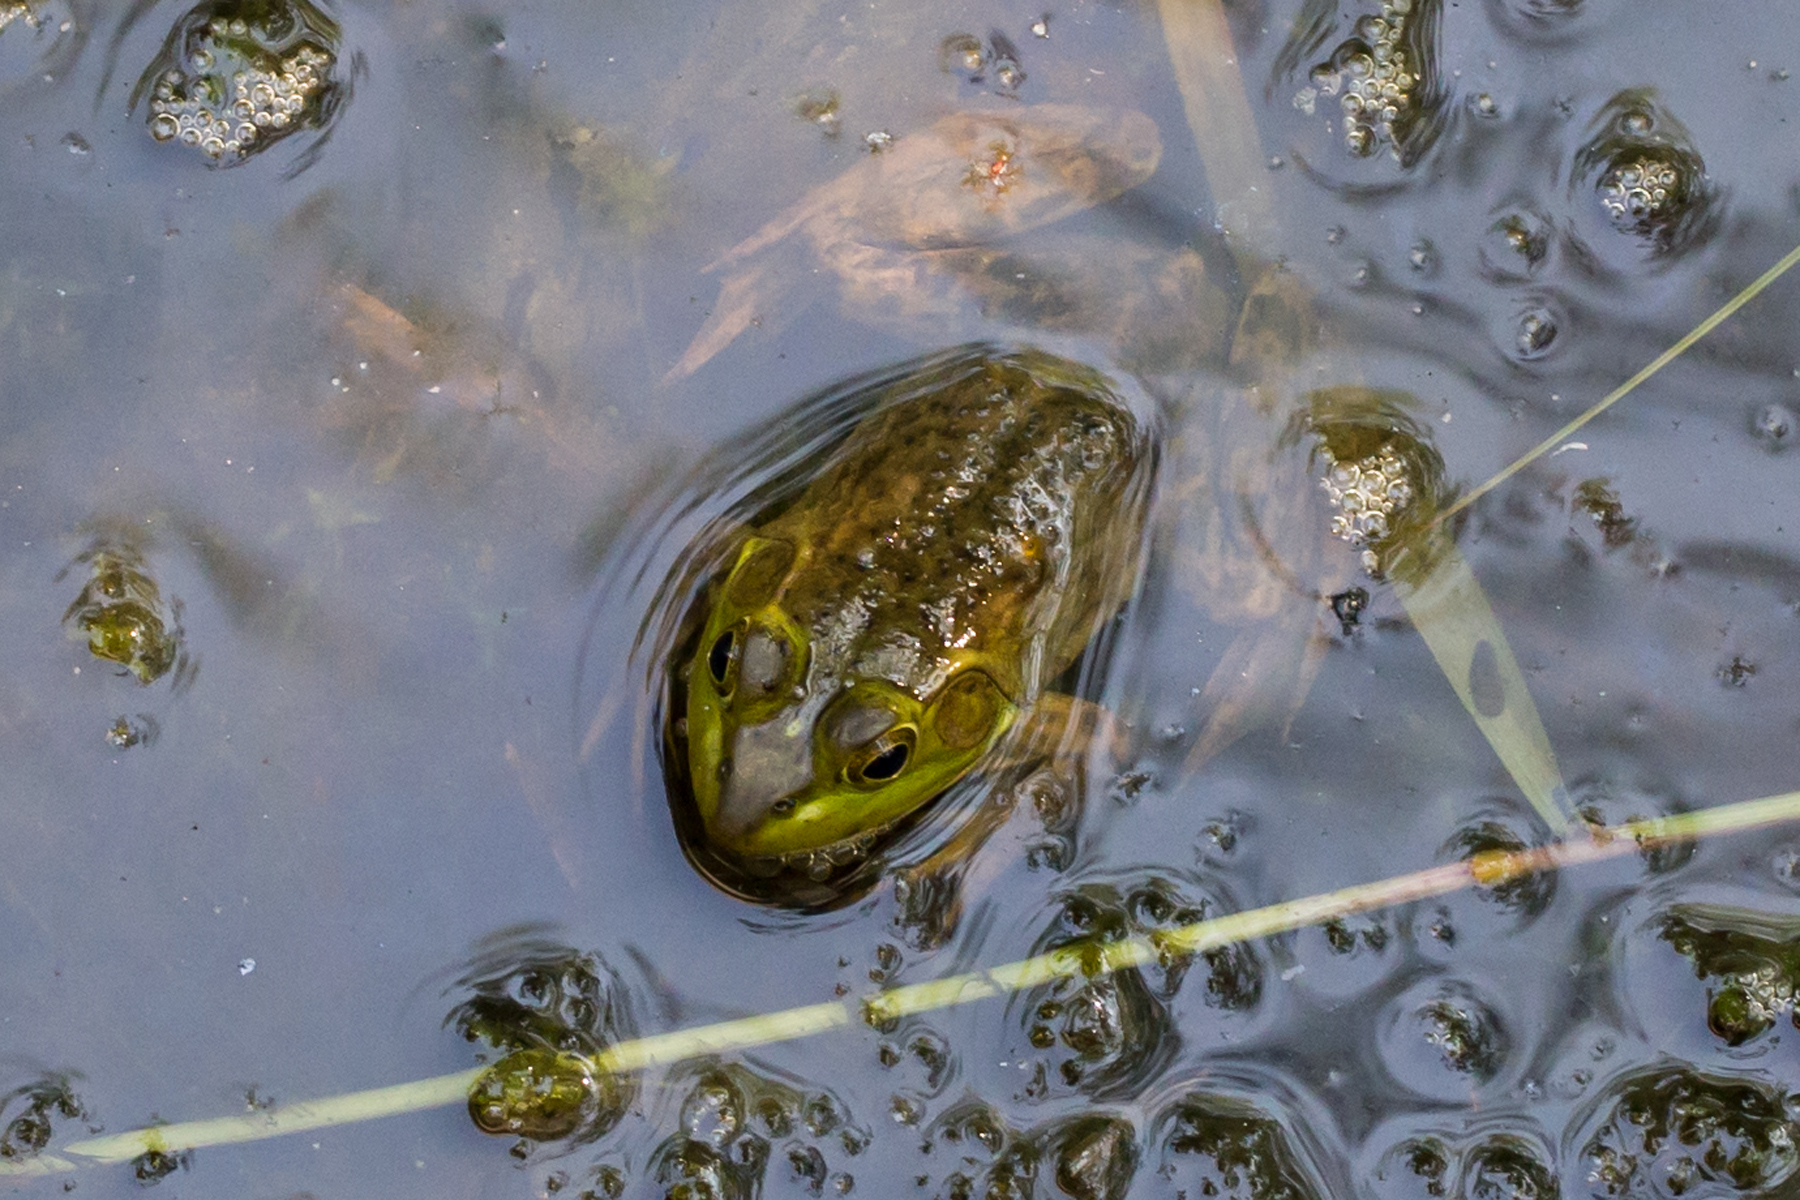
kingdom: Animalia
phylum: Chordata
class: Amphibia
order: Anura
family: Ranidae
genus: Lithobates
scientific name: Lithobates catesbeianus
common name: American bullfrog
